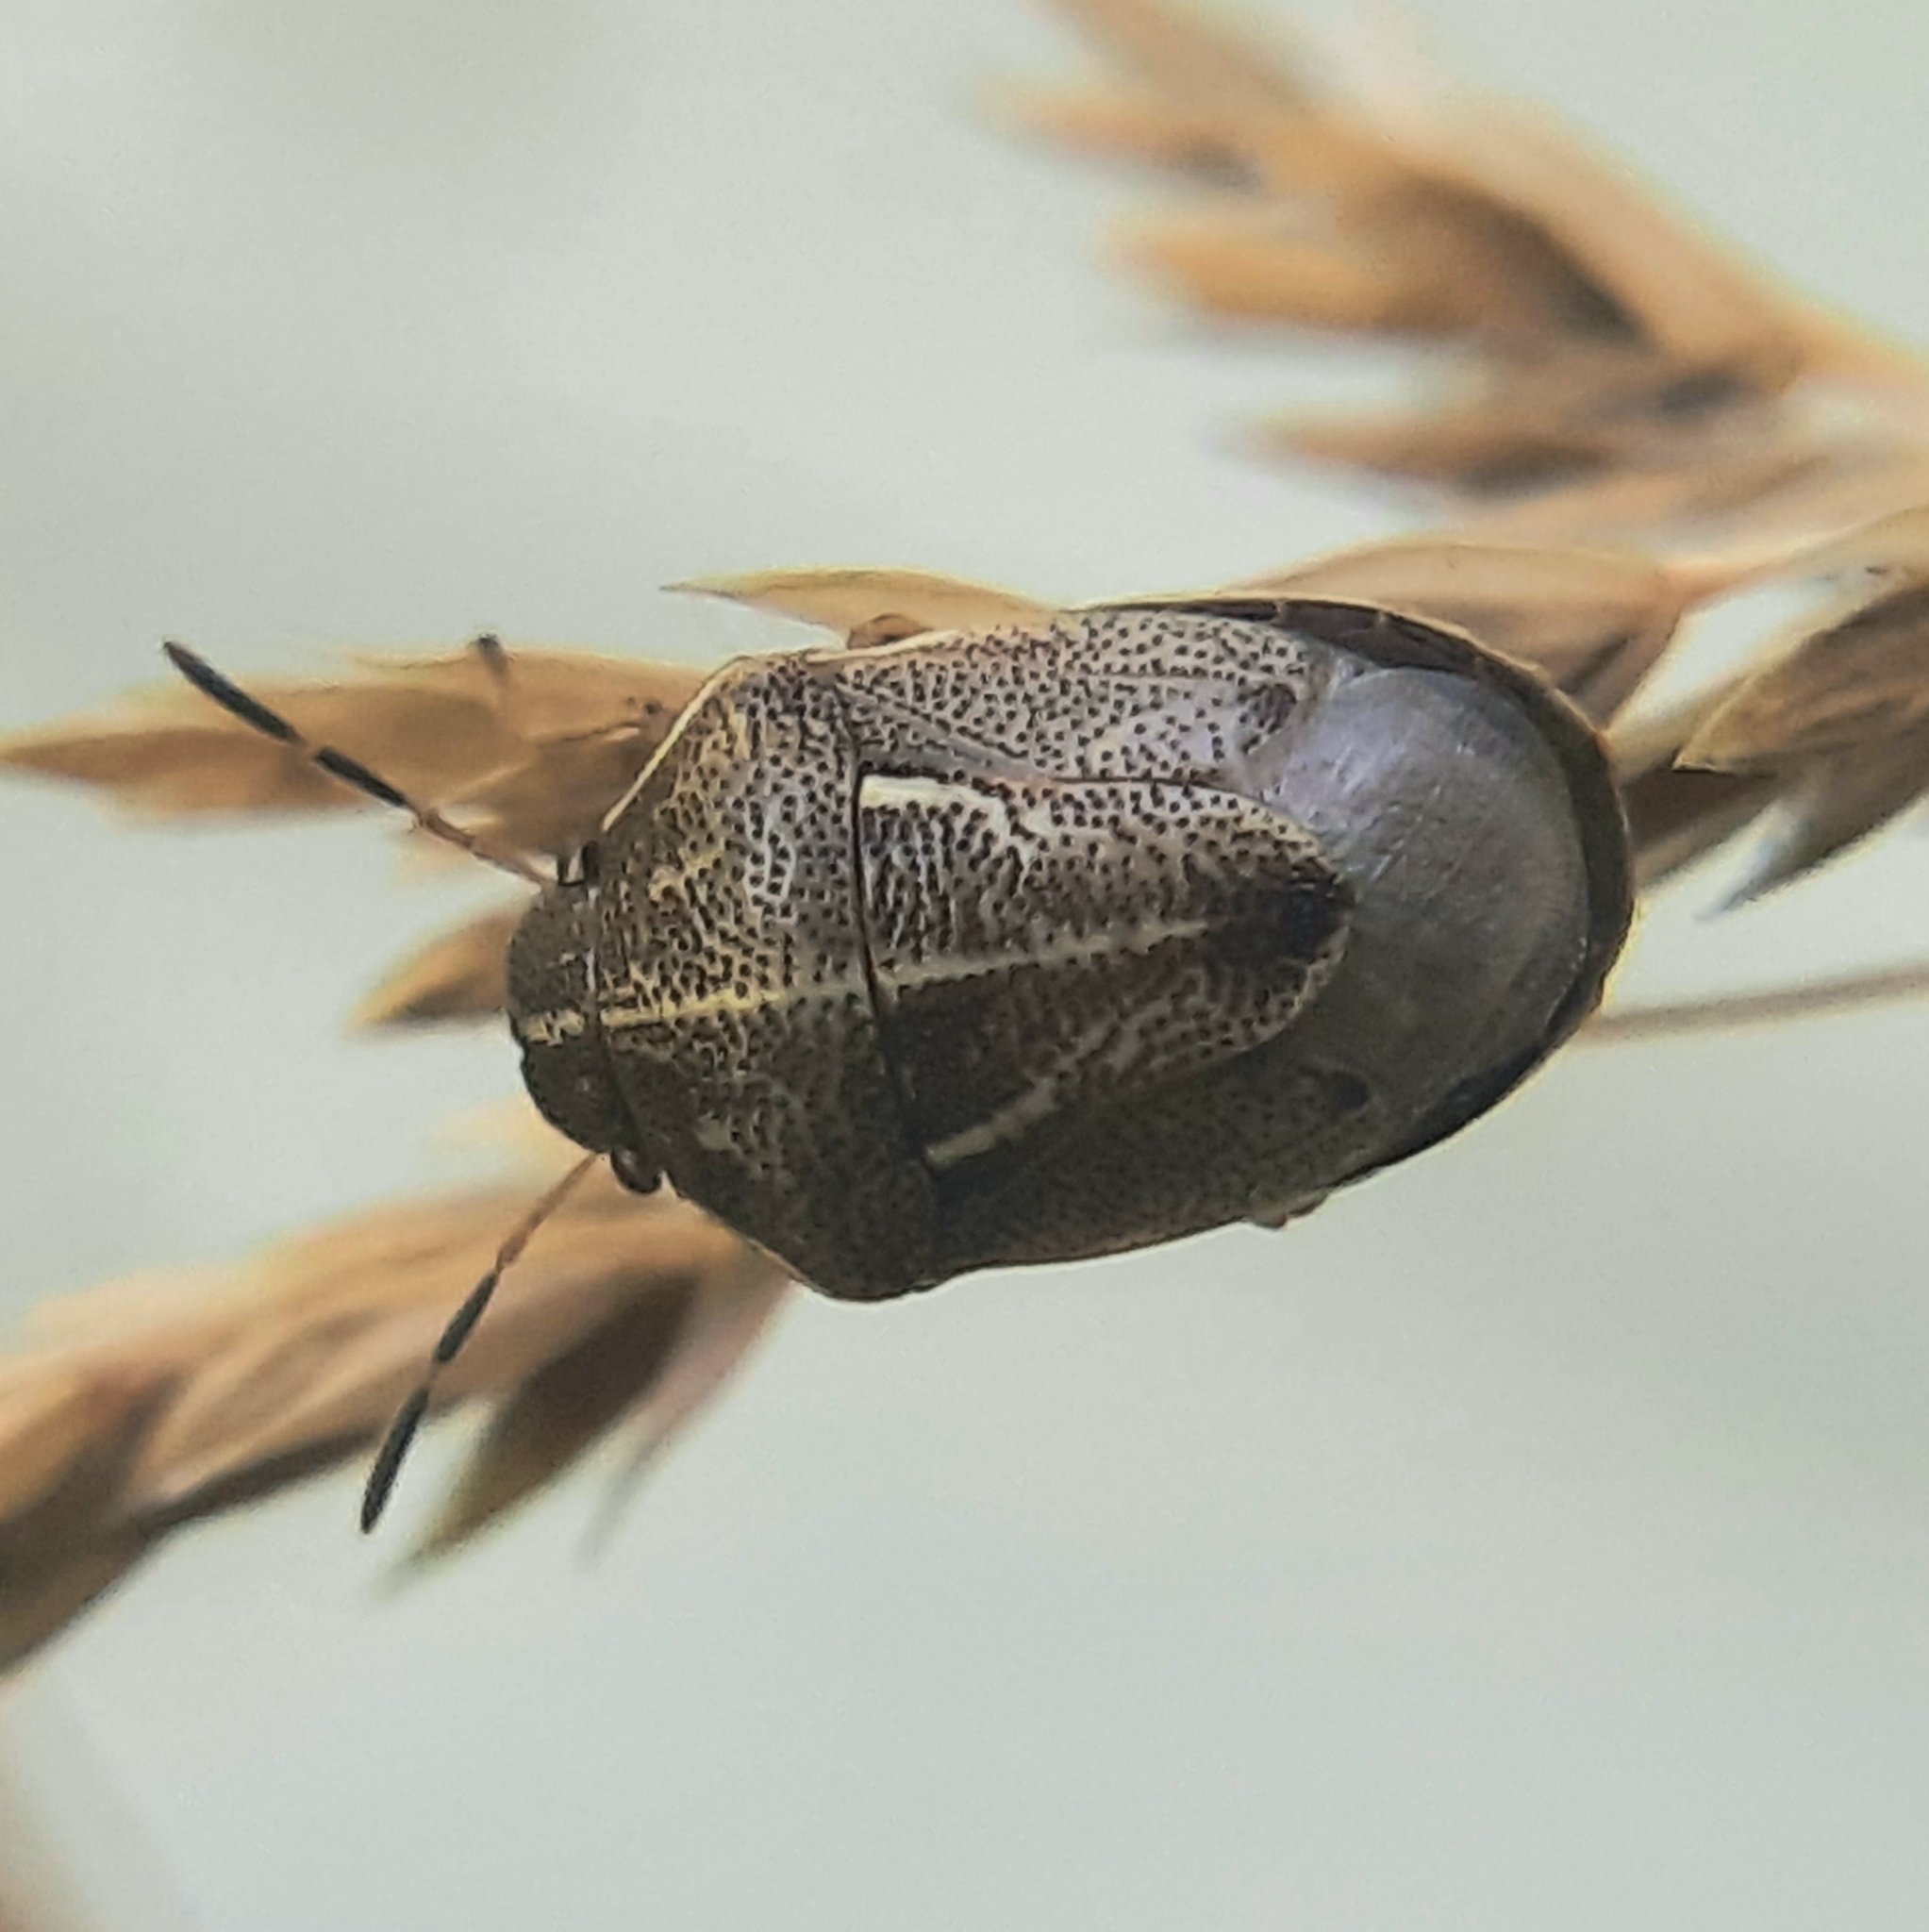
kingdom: Animalia
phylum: Arthropoda
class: Insecta
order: Hemiptera
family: Pentatomidae
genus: Neottiglossa
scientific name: Neottiglossa undata
